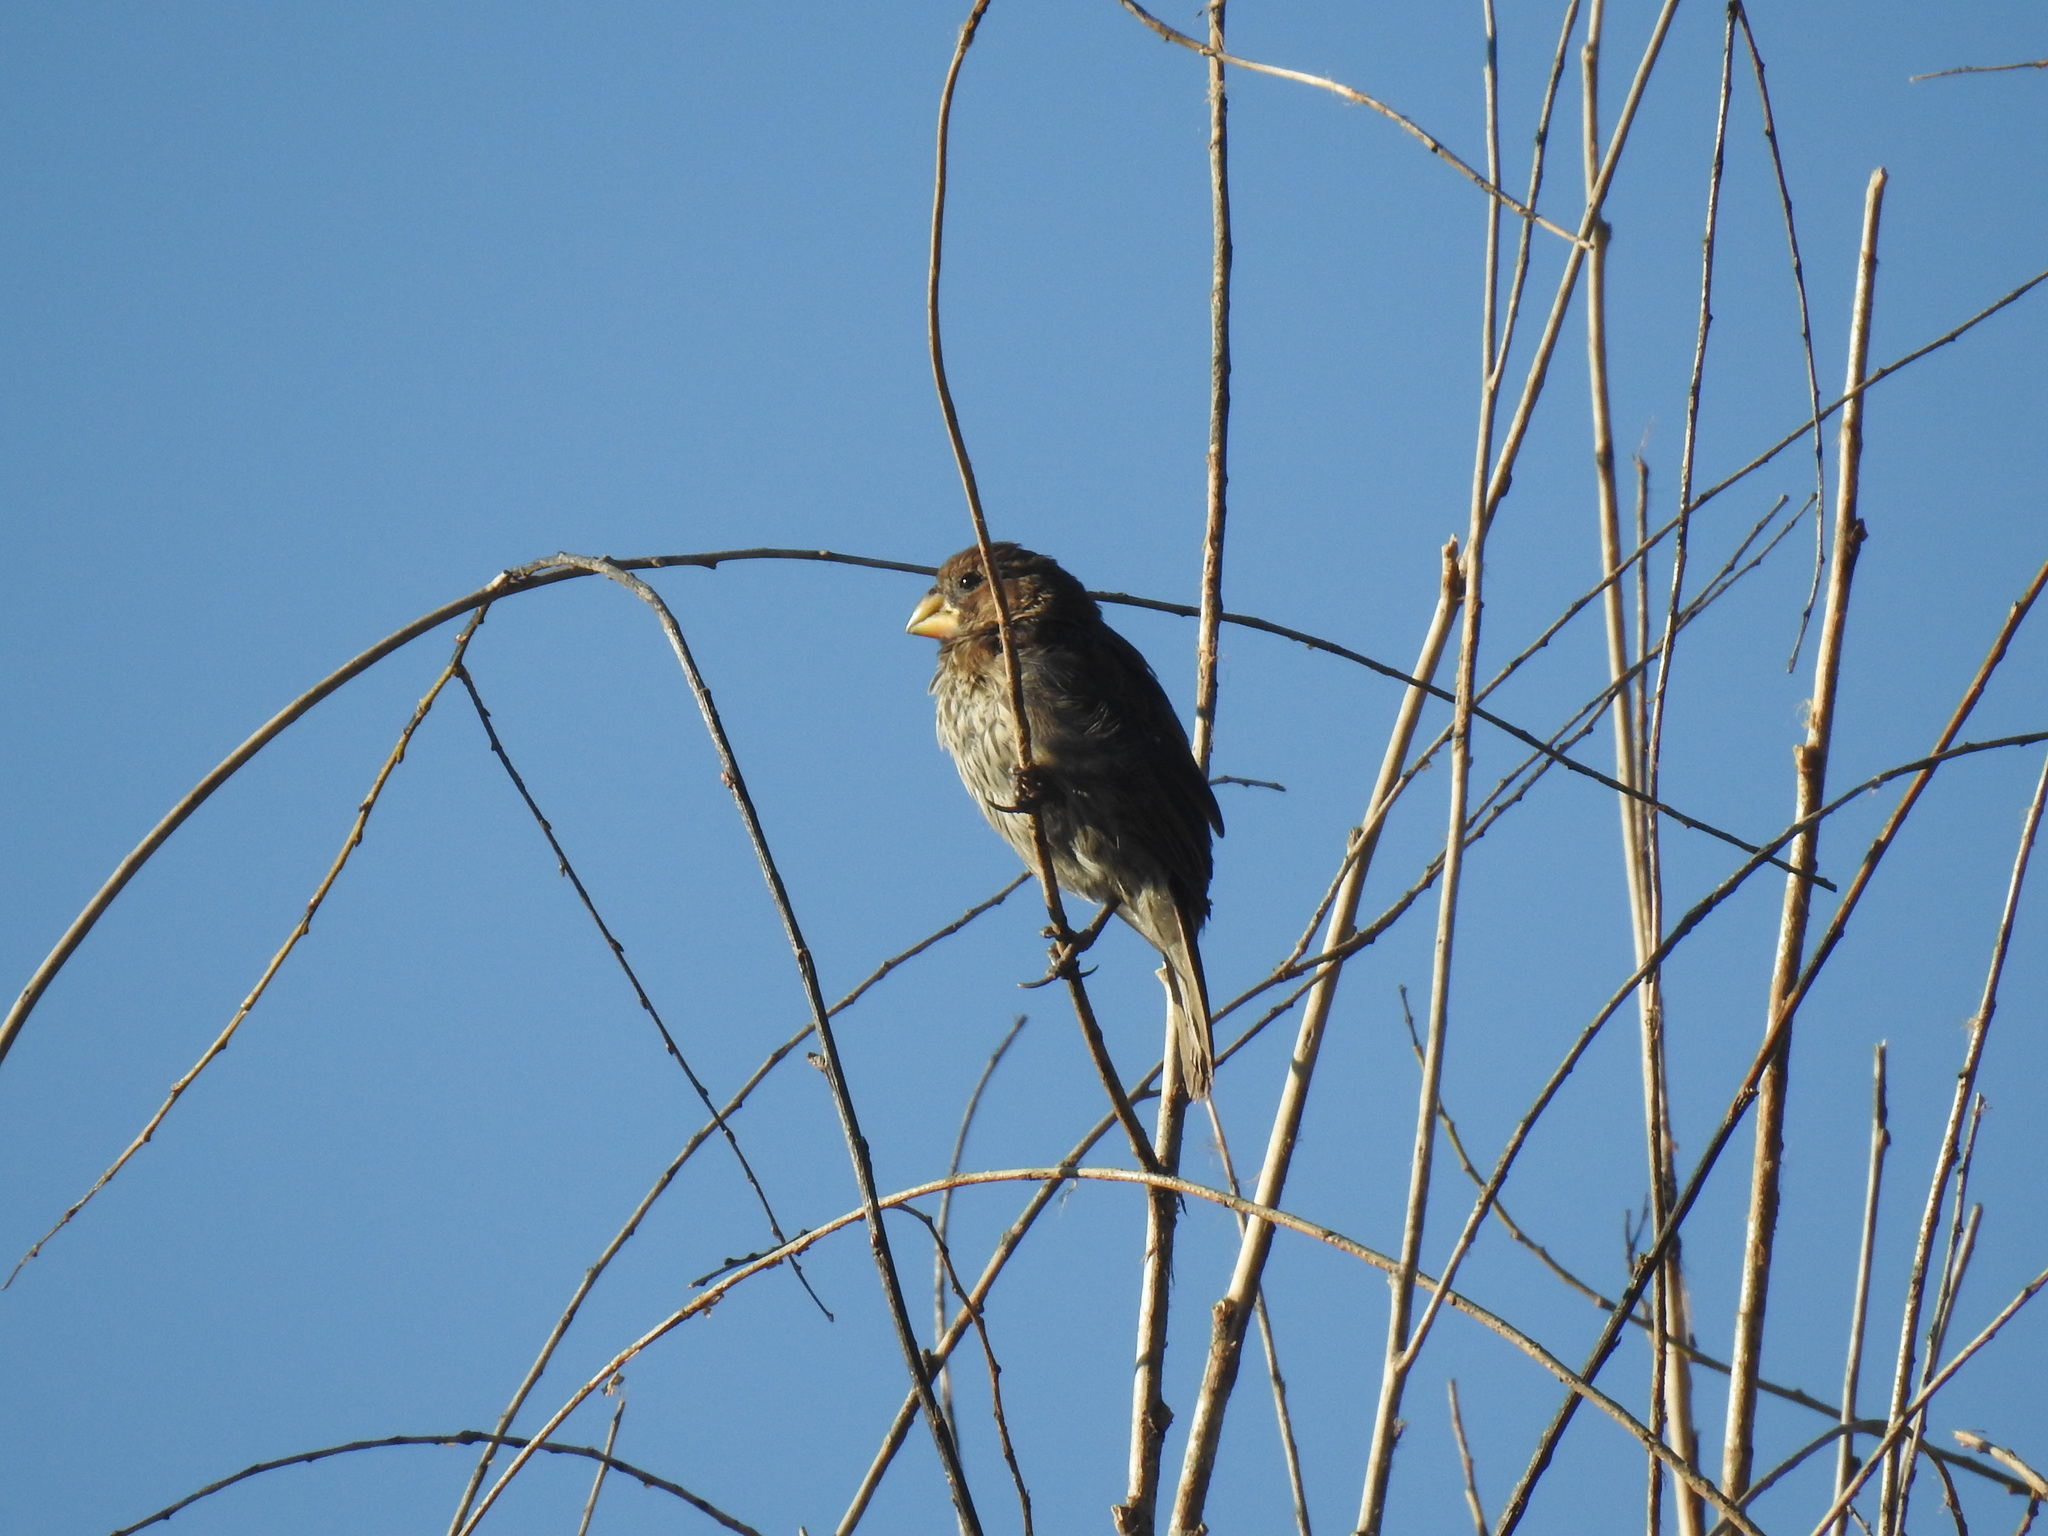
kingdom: Animalia
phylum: Chordata
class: Aves
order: Passeriformes
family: Ploceidae
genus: Amblyospiza
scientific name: Amblyospiza albifrons
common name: Thick-billed weaver
